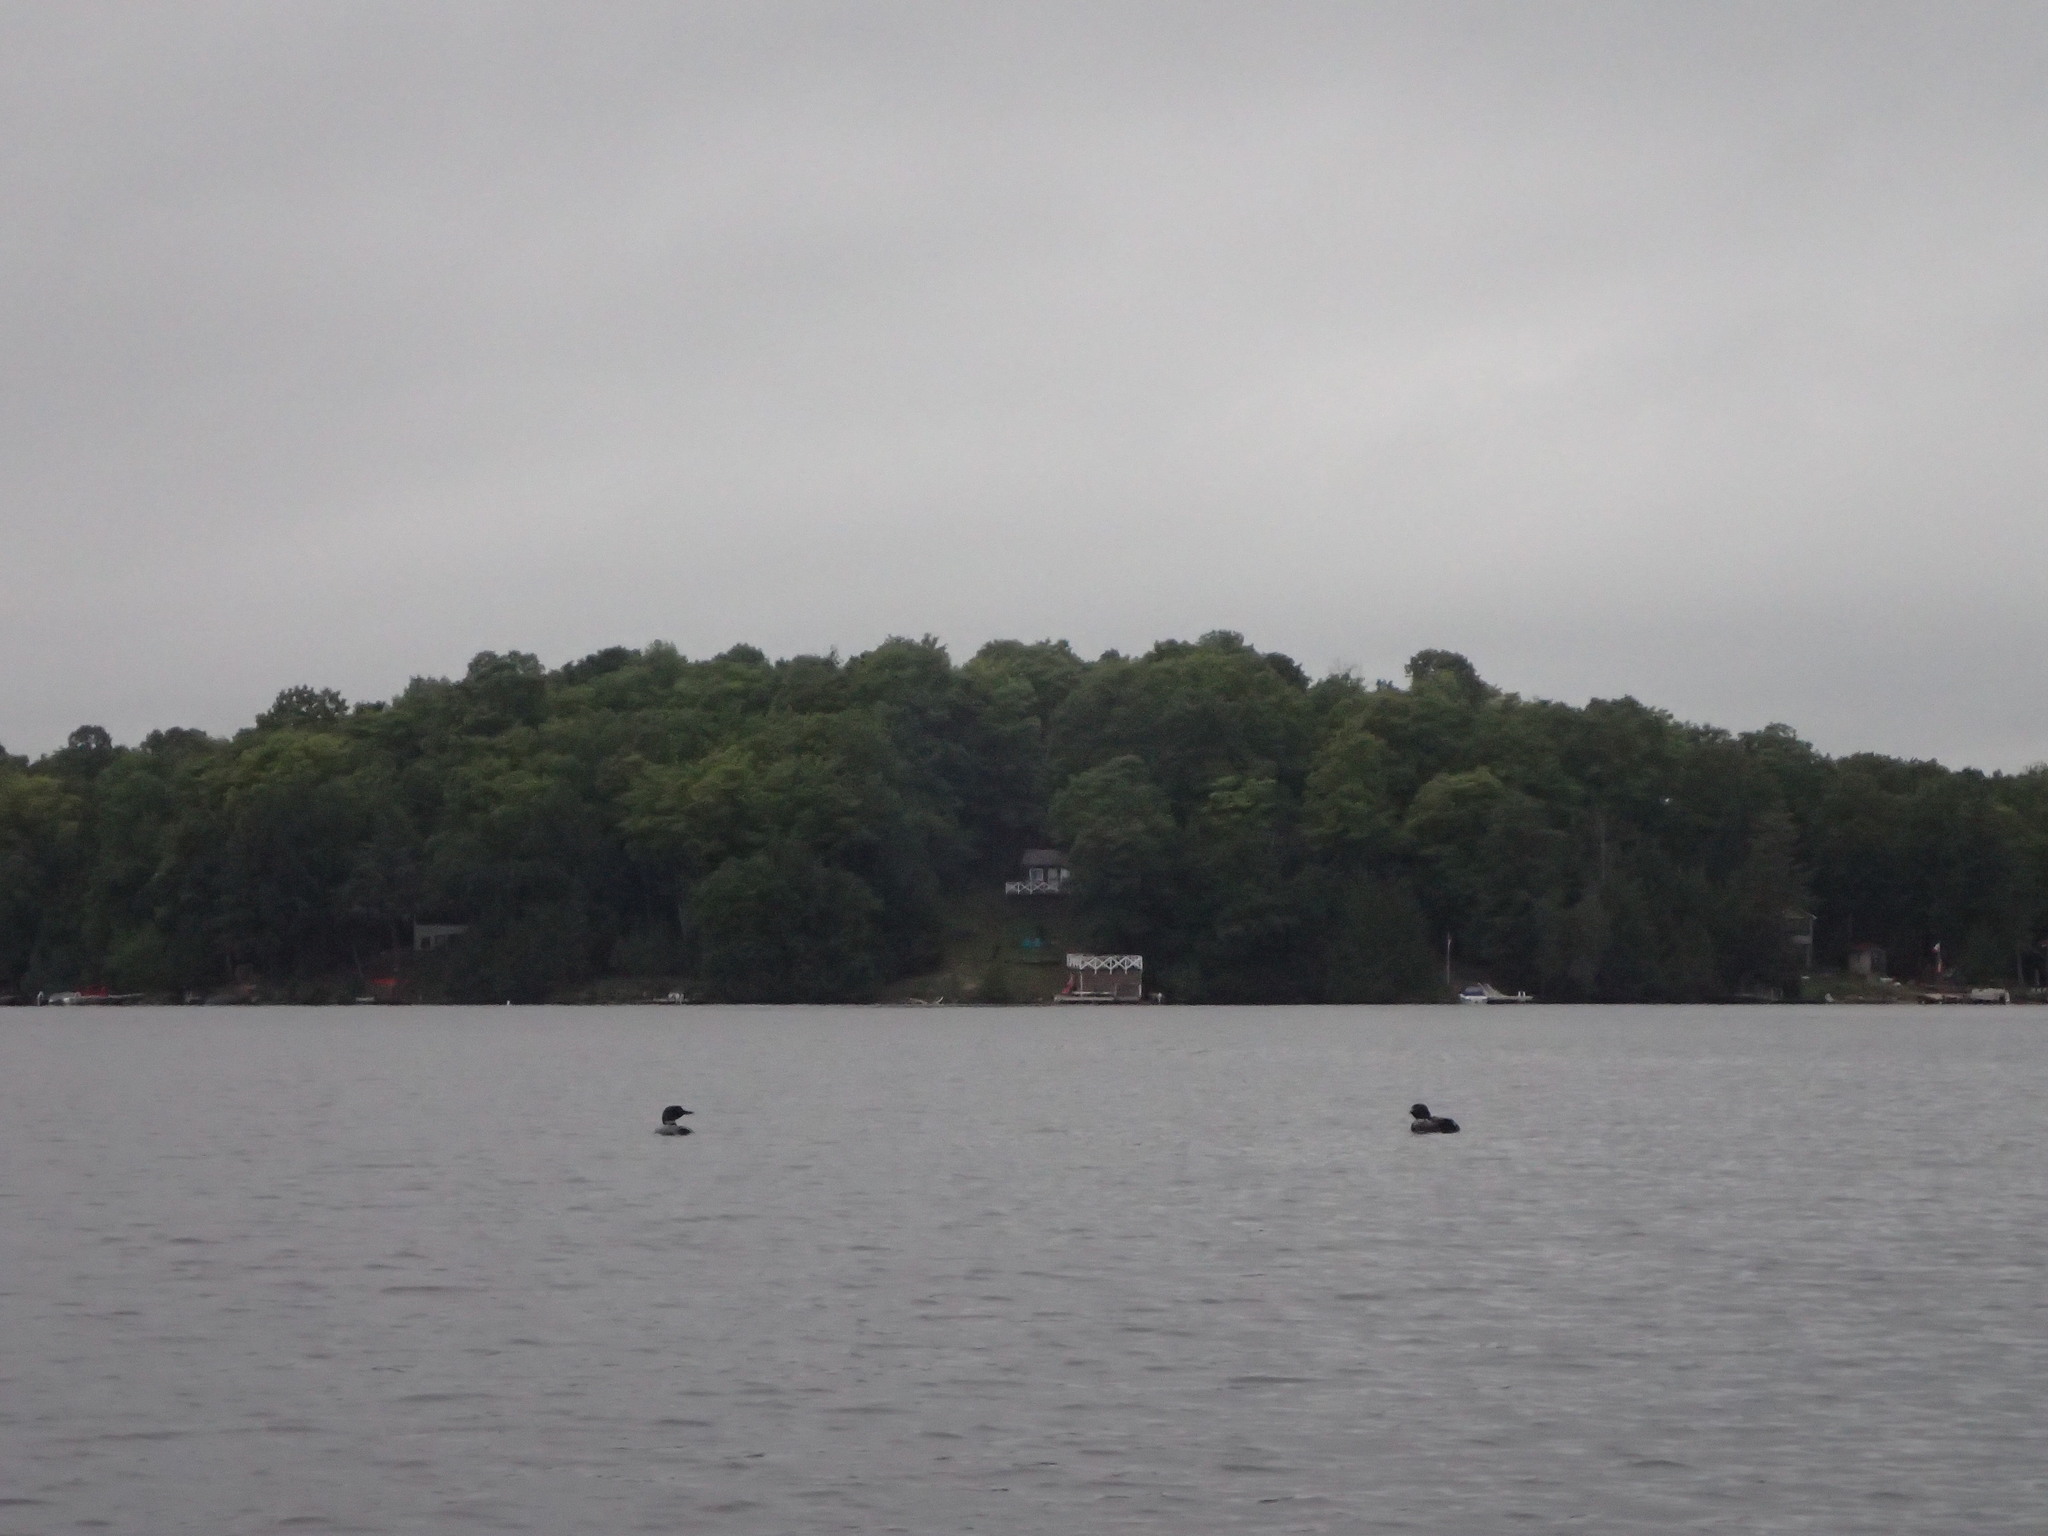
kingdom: Animalia
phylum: Chordata
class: Aves
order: Gaviiformes
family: Gaviidae
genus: Gavia
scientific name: Gavia immer
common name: Common loon
